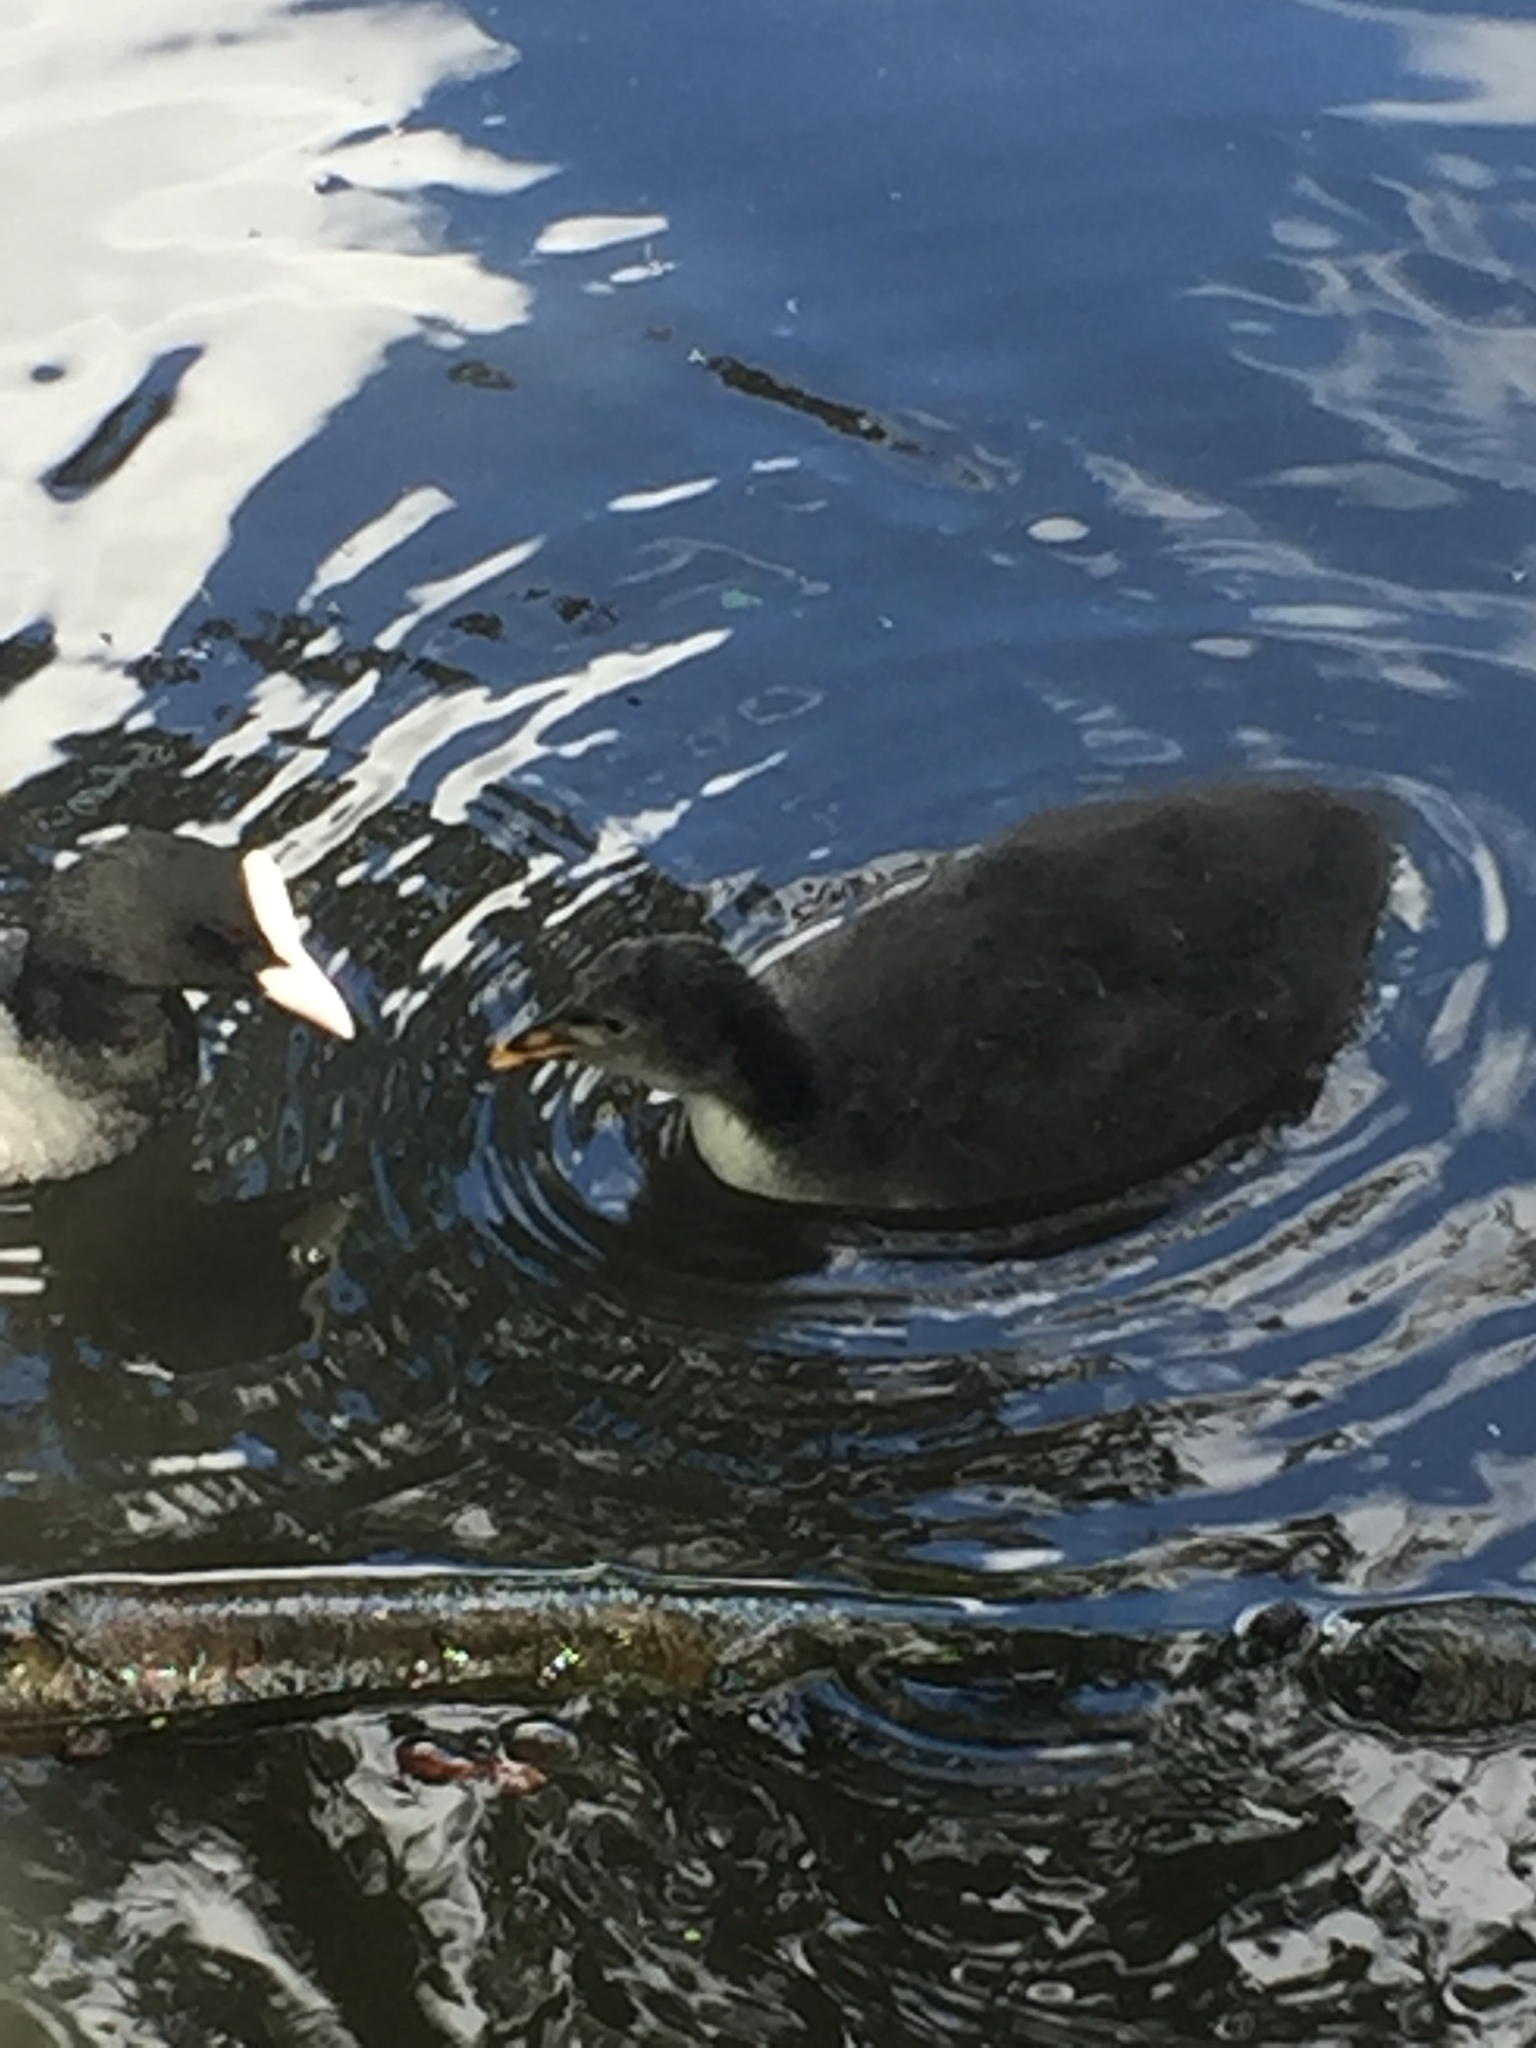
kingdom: Animalia
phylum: Chordata
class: Aves
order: Gruiformes
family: Rallidae
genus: Fulica
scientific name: Fulica atra
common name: Eurasian coot
